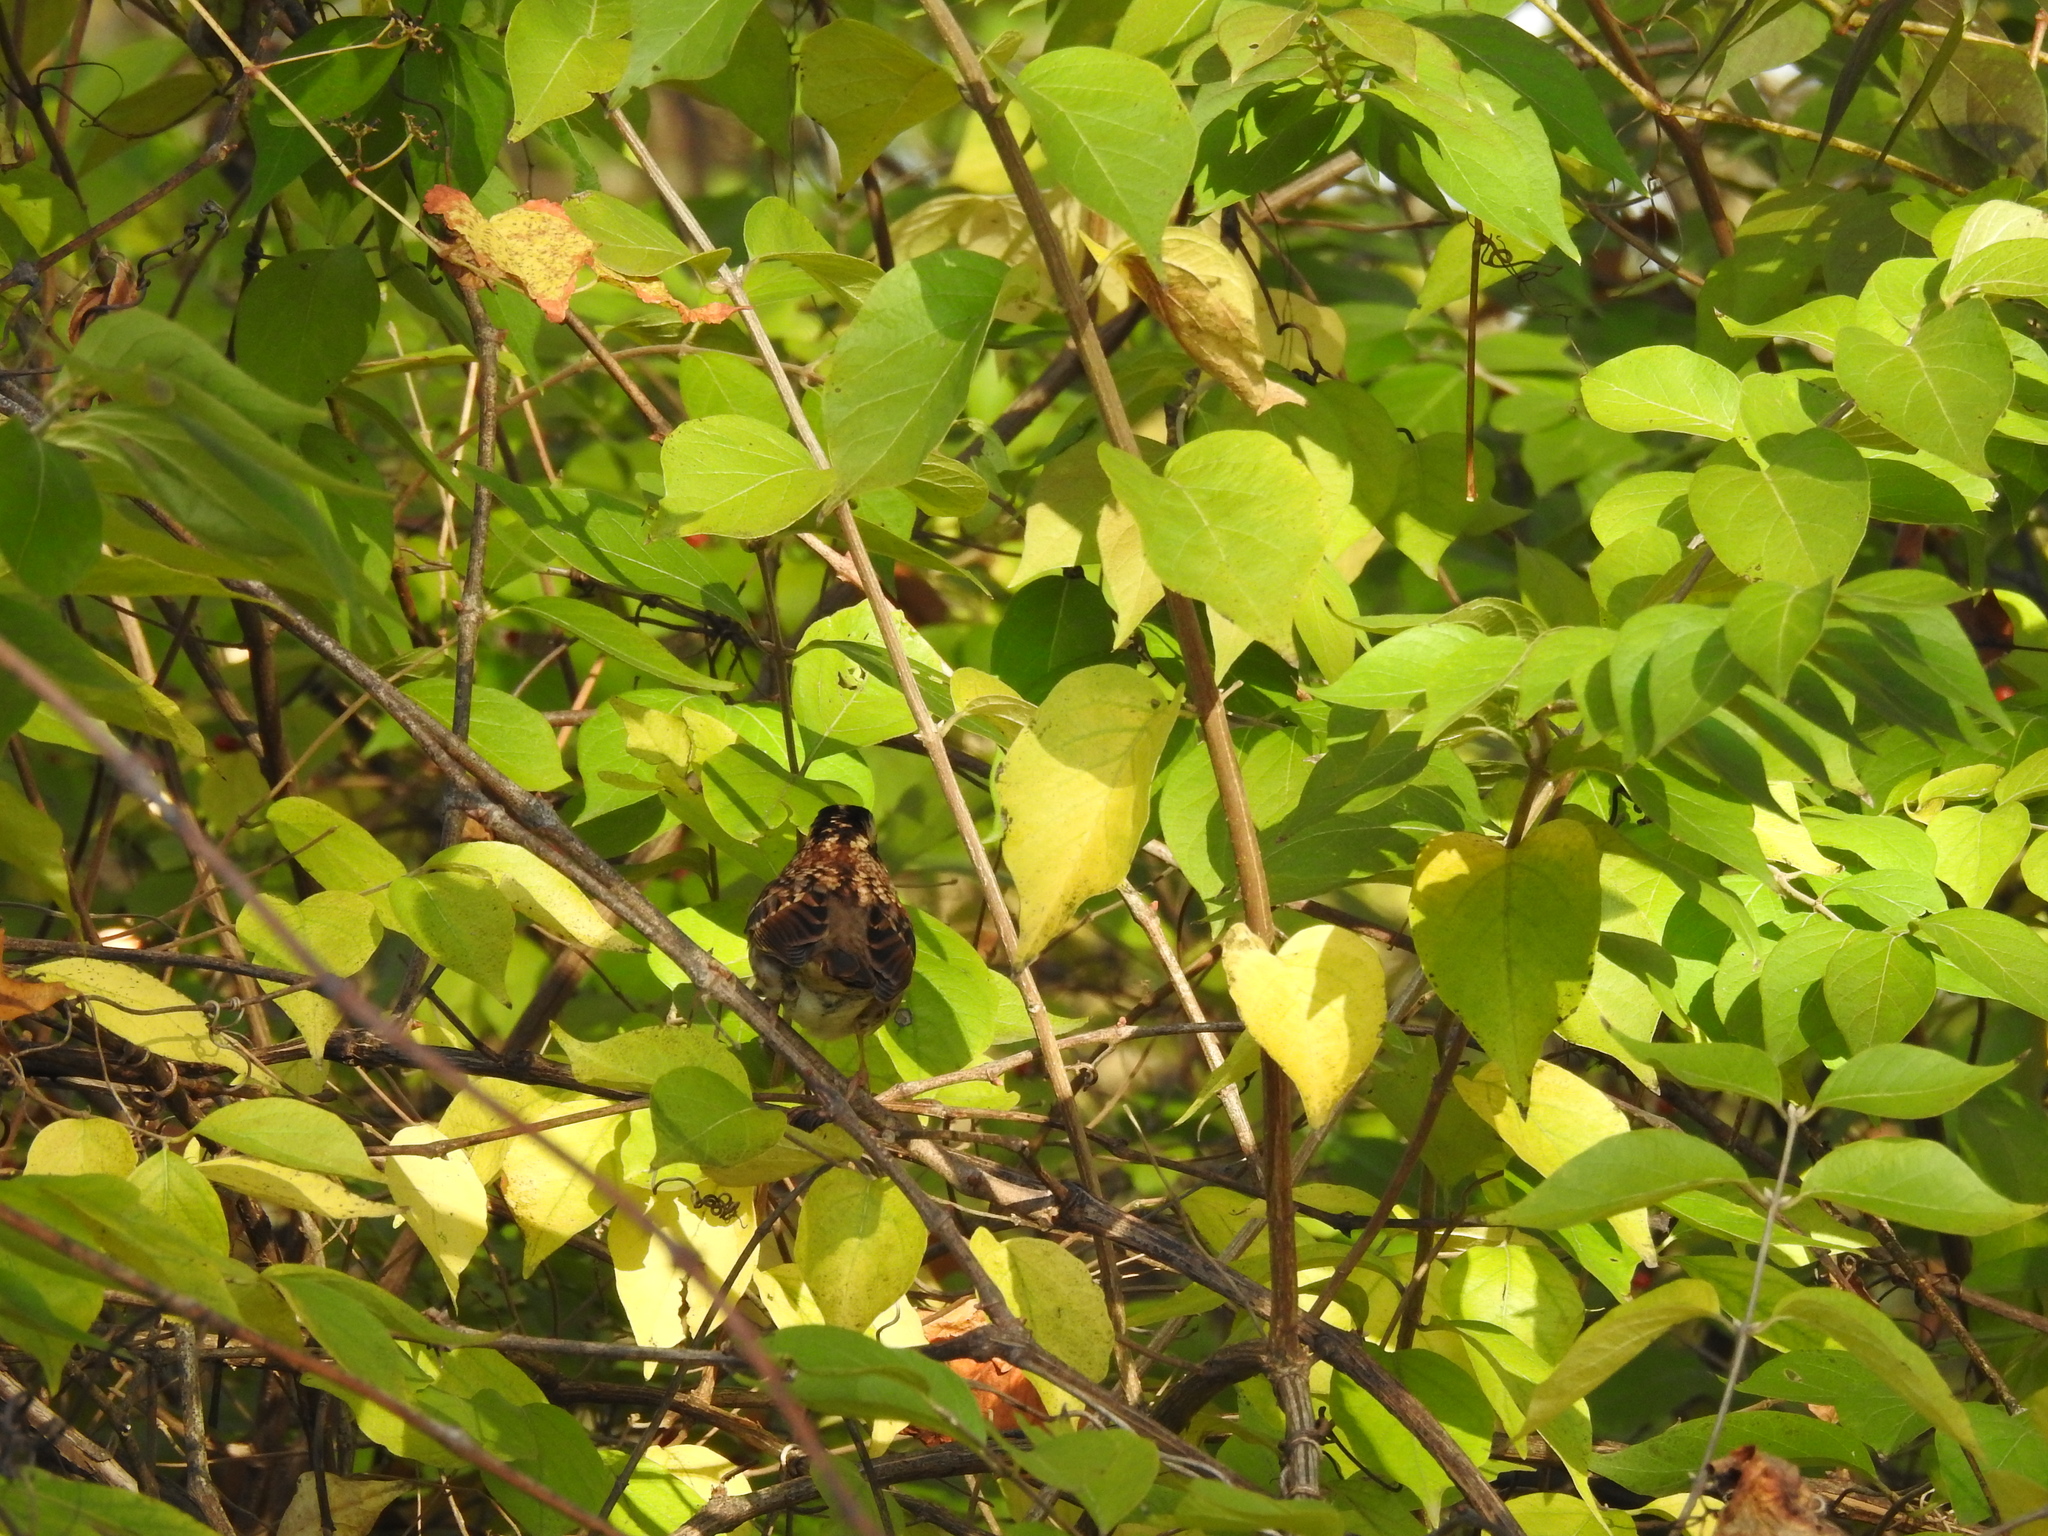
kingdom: Animalia
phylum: Chordata
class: Aves
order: Passeriformes
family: Passerellidae
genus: Zonotrichia
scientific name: Zonotrichia albicollis
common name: White-throated sparrow
